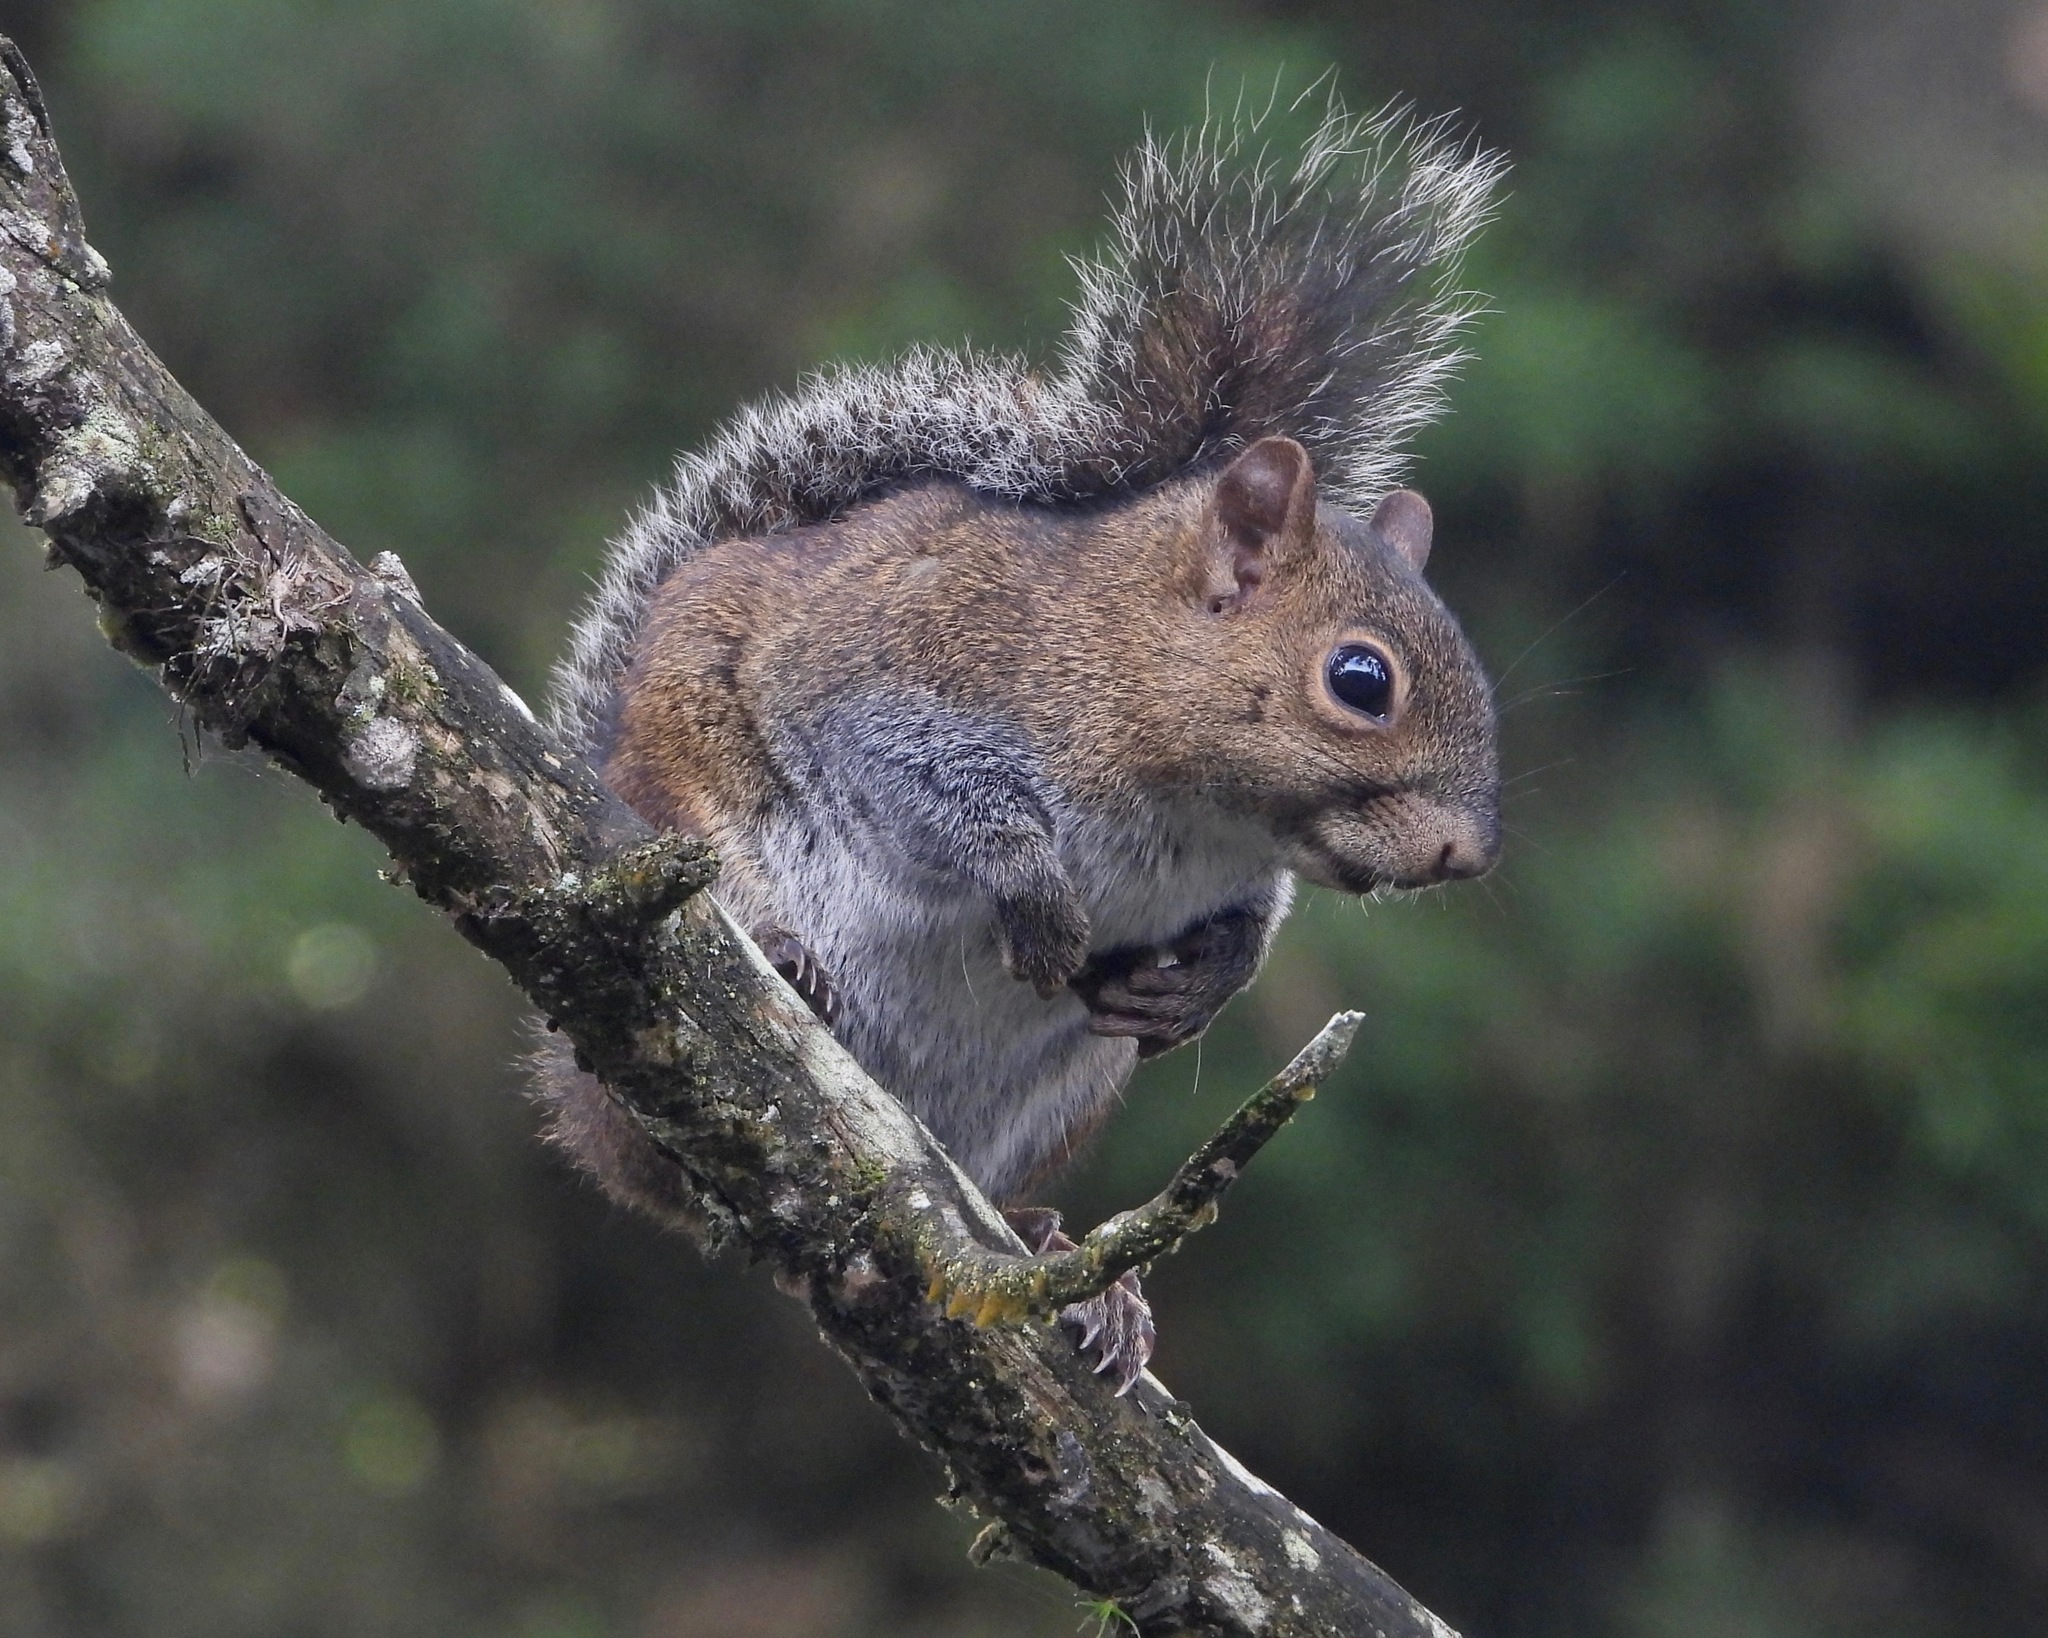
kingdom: Animalia
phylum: Chordata
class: Mammalia
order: Rodentia
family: Sciuridae
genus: Sciurus
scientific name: Sciurus deppei
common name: Deppe's squirrel
